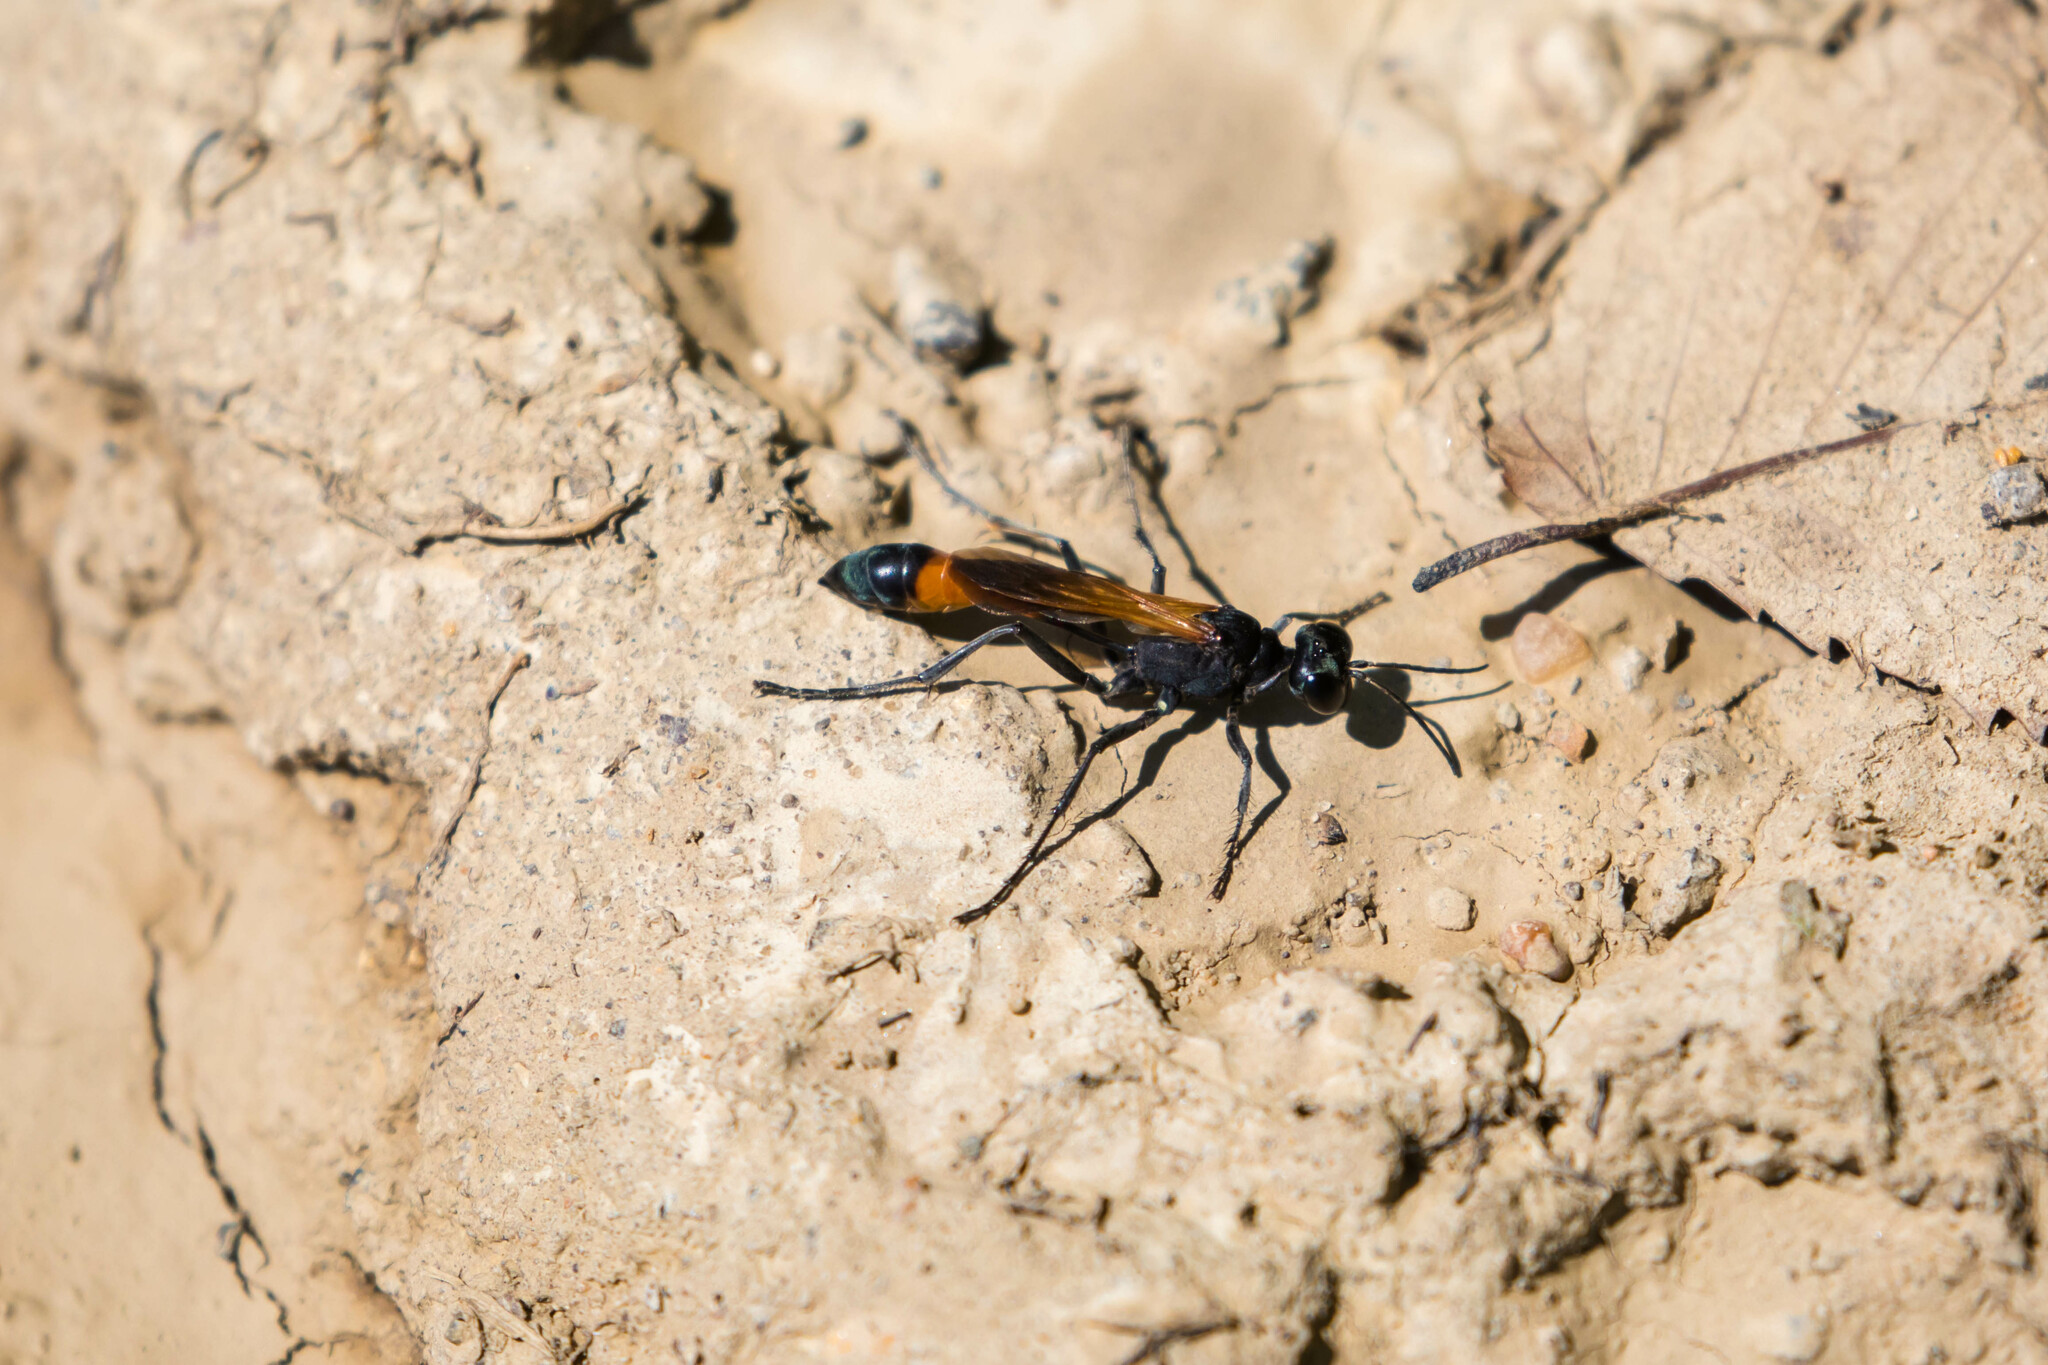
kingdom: Animalia
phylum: Arthropoda
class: Insecta
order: Hymenoptera
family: Sphecidae
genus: Ammophila
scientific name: Ammophila pictipennis
